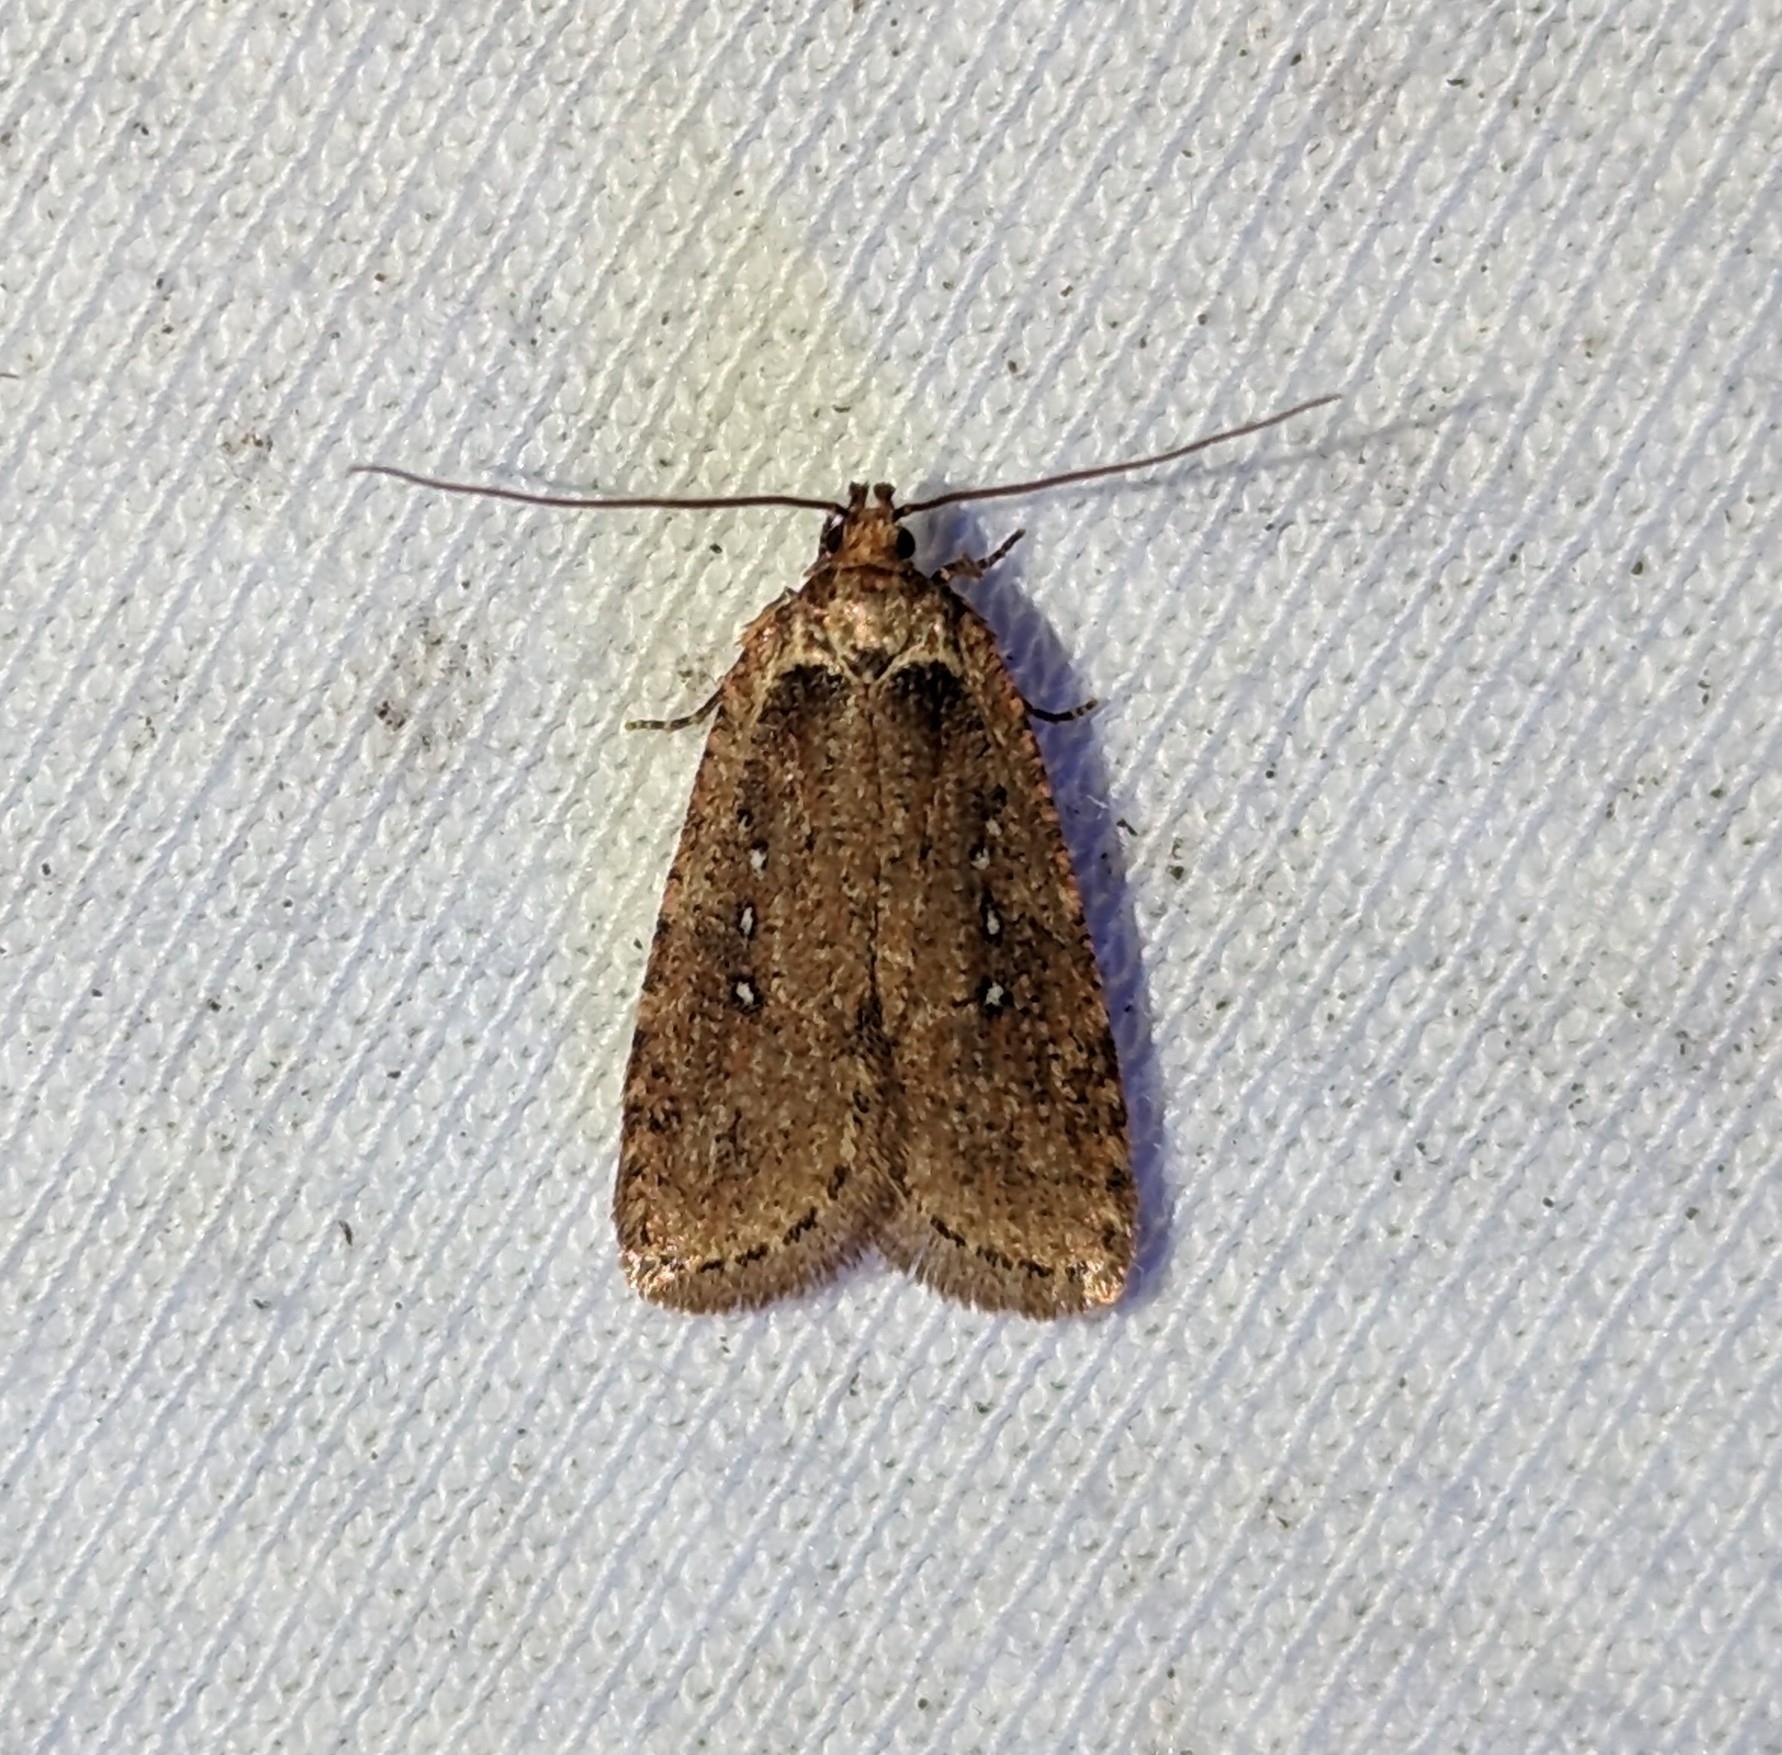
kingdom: Animalia
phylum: Arthropoda
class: Insecta
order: Lepidoptera
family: Depressariidae
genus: Agonopterix
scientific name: Agonopterix rosaciliella
